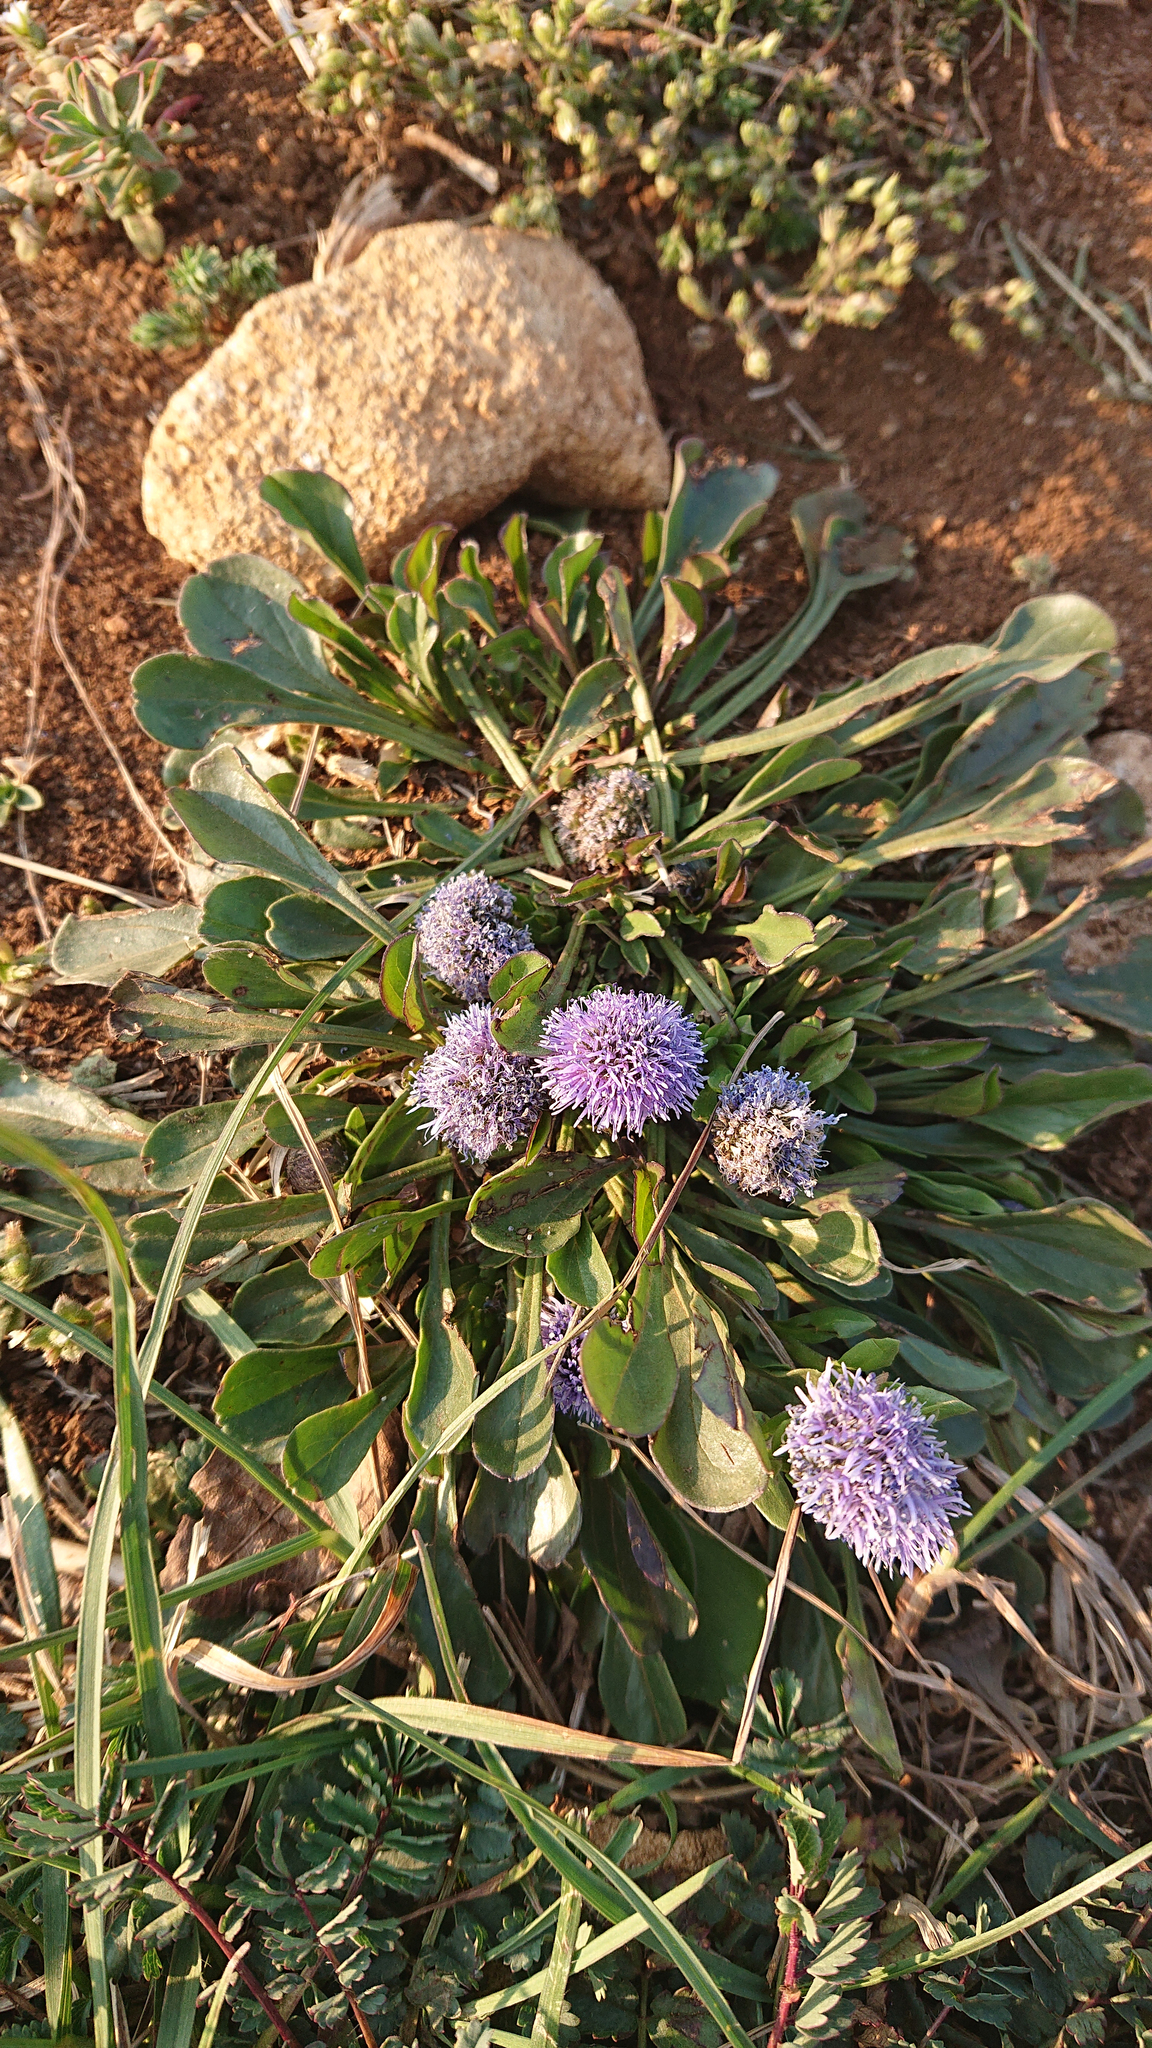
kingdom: Plantae
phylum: Tracheophyta
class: Magnoliopsida
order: Lamiales
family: Plantaginaceae
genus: Globularia
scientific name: Globularia bisnagarica
